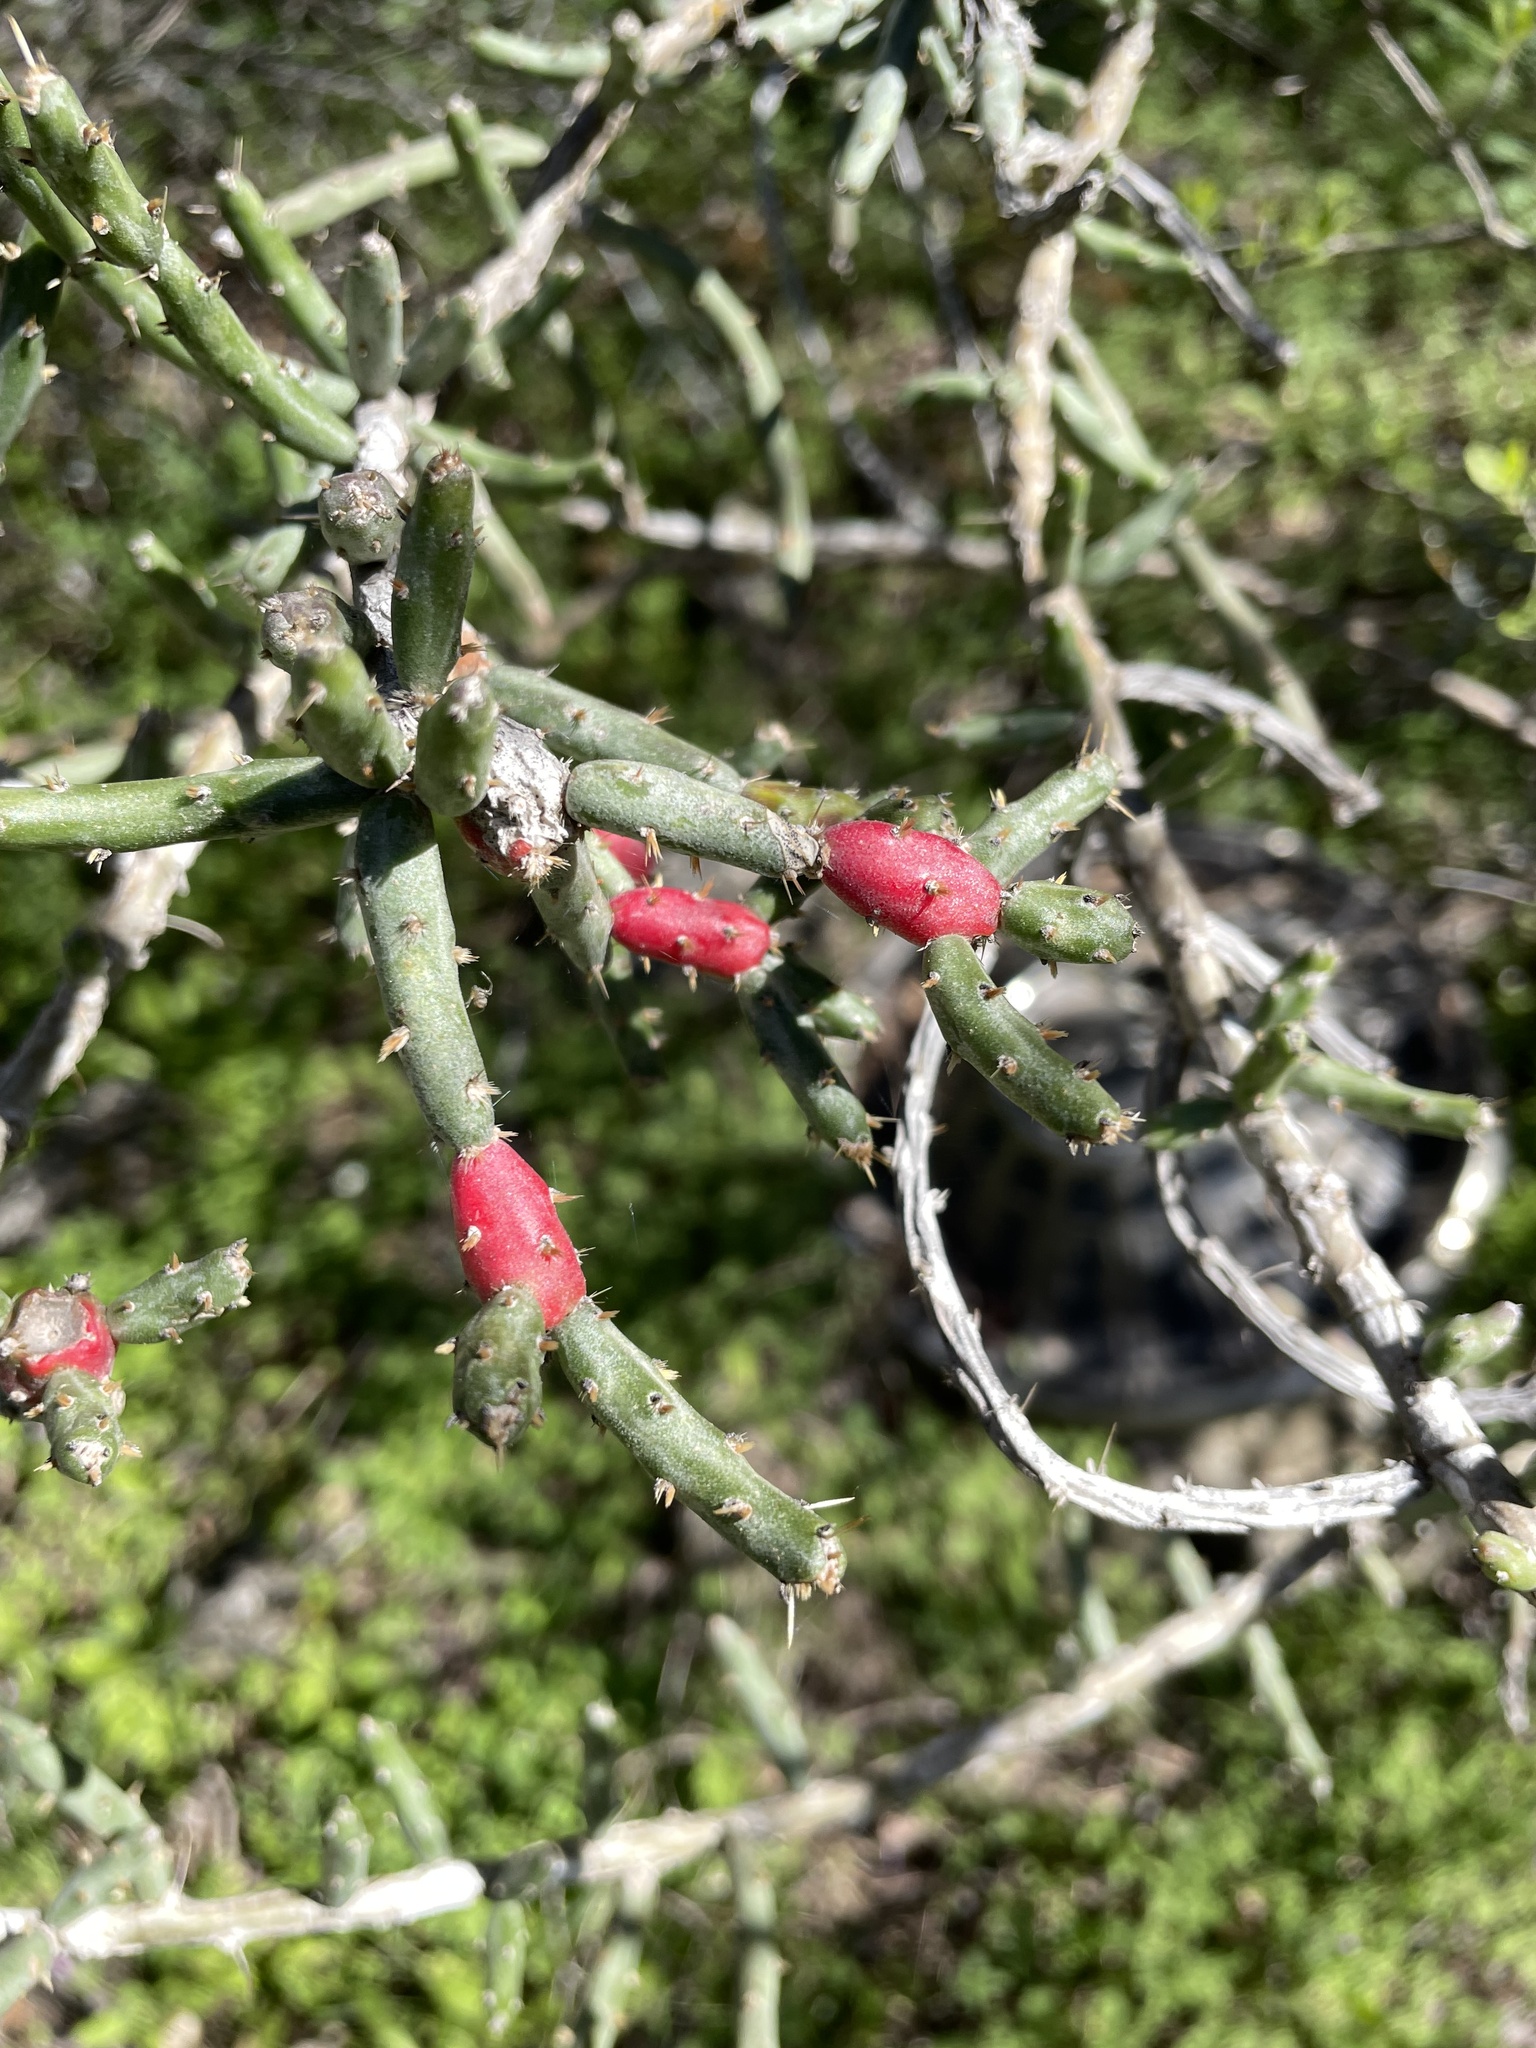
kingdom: Plantae
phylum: Tracheophyta
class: Magnoliopsida
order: Caryophyllales
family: Cactaceae
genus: Cylindropuntia
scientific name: Cylindropuntia leptocaulis
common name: Christmas cactus
